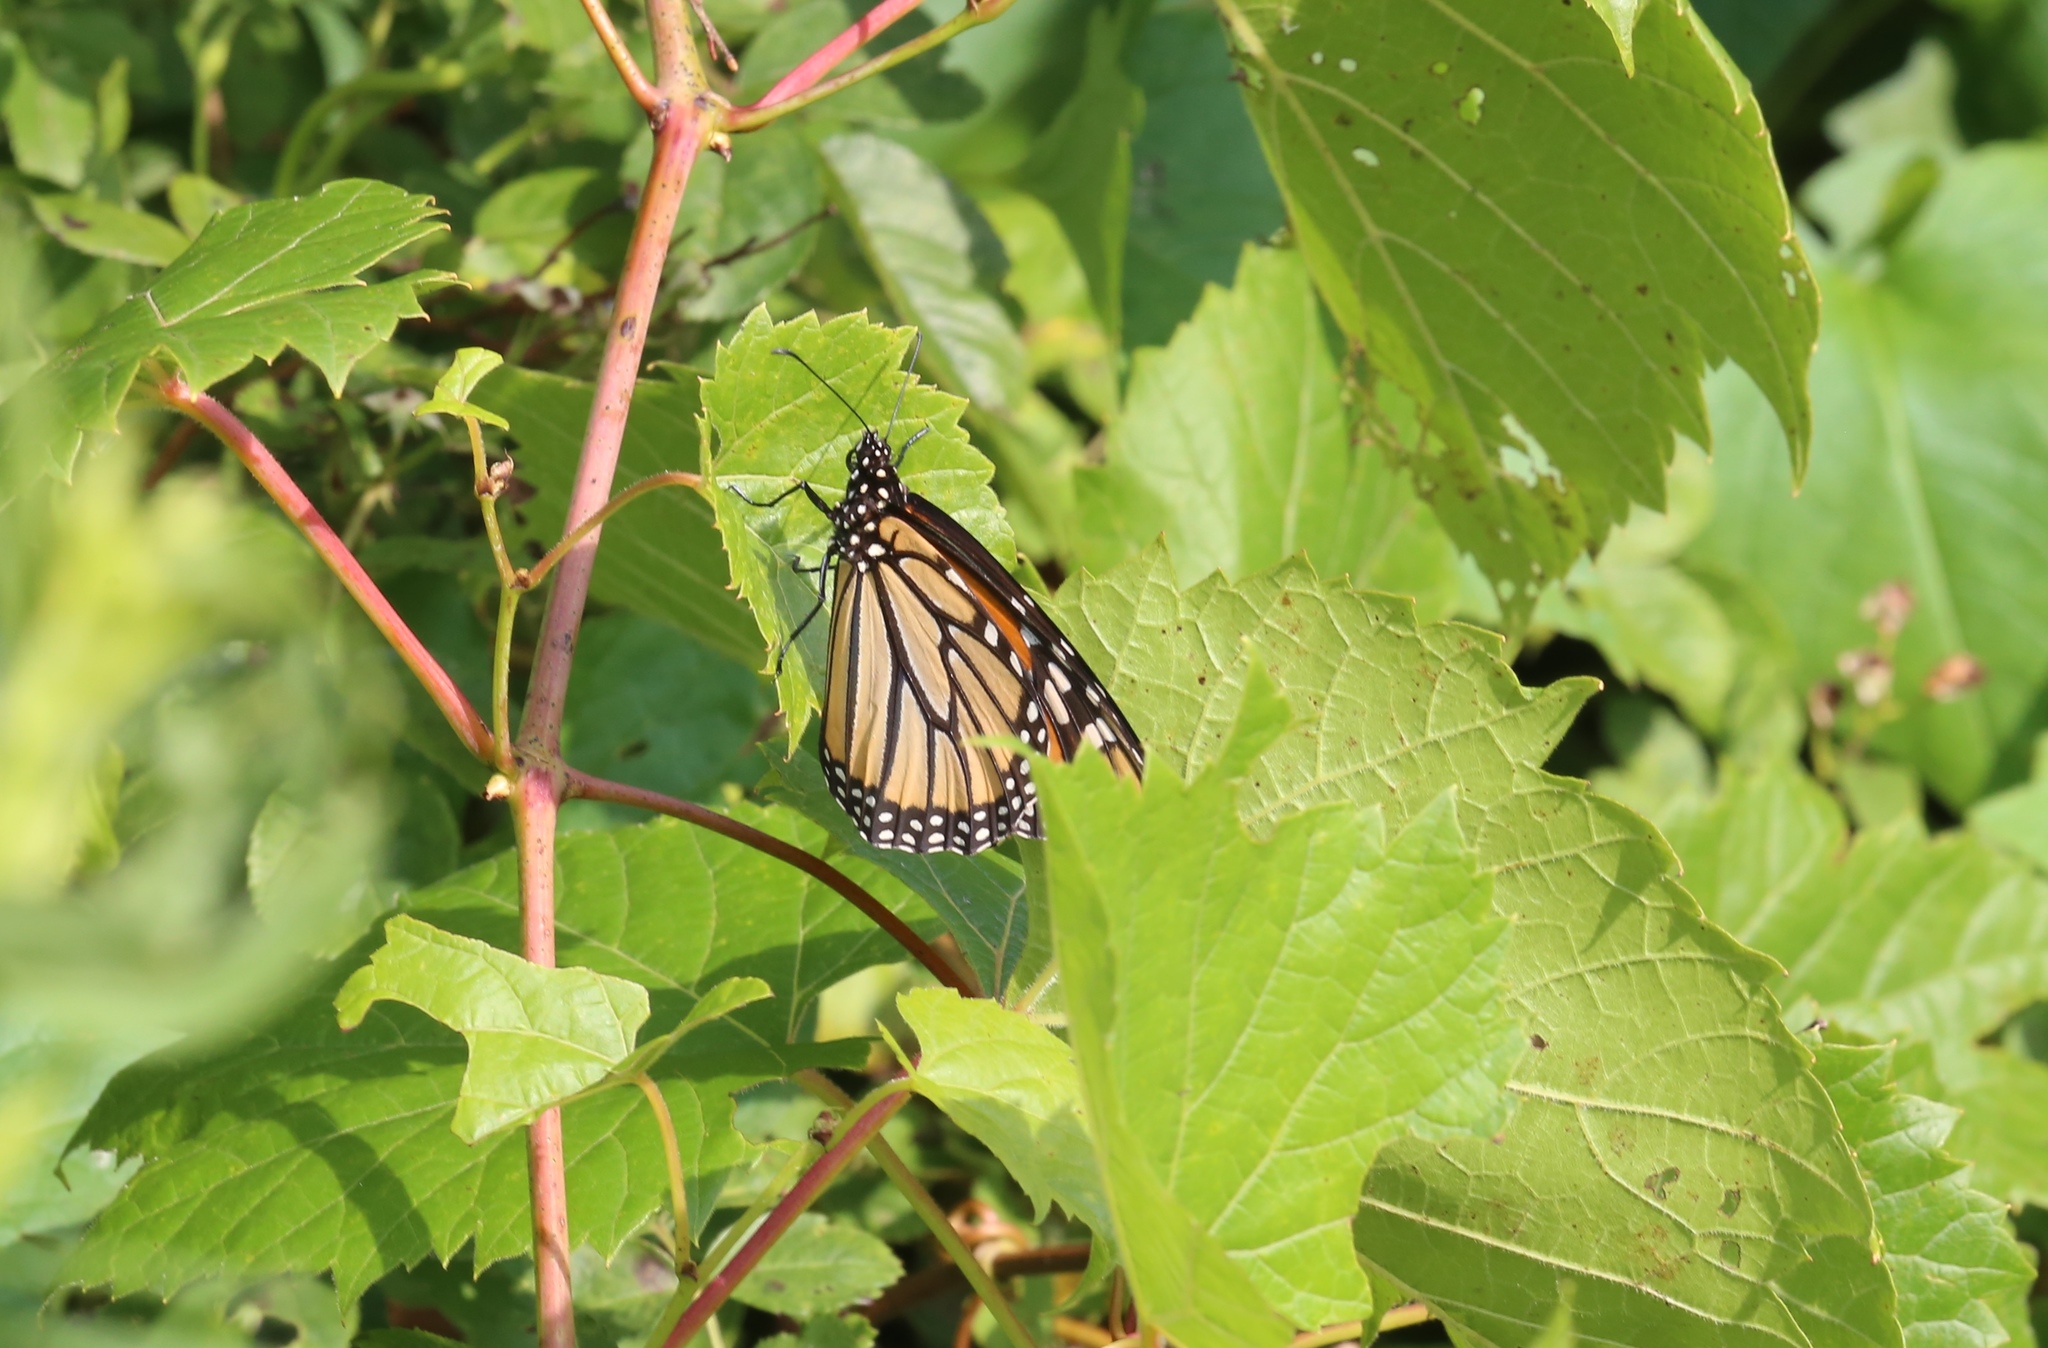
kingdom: Animalia
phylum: Arthropoda
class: Insecta
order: Lepidoptera
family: Nymphalidae
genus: Danaus
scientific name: Danaus plexippus
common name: Monarch
